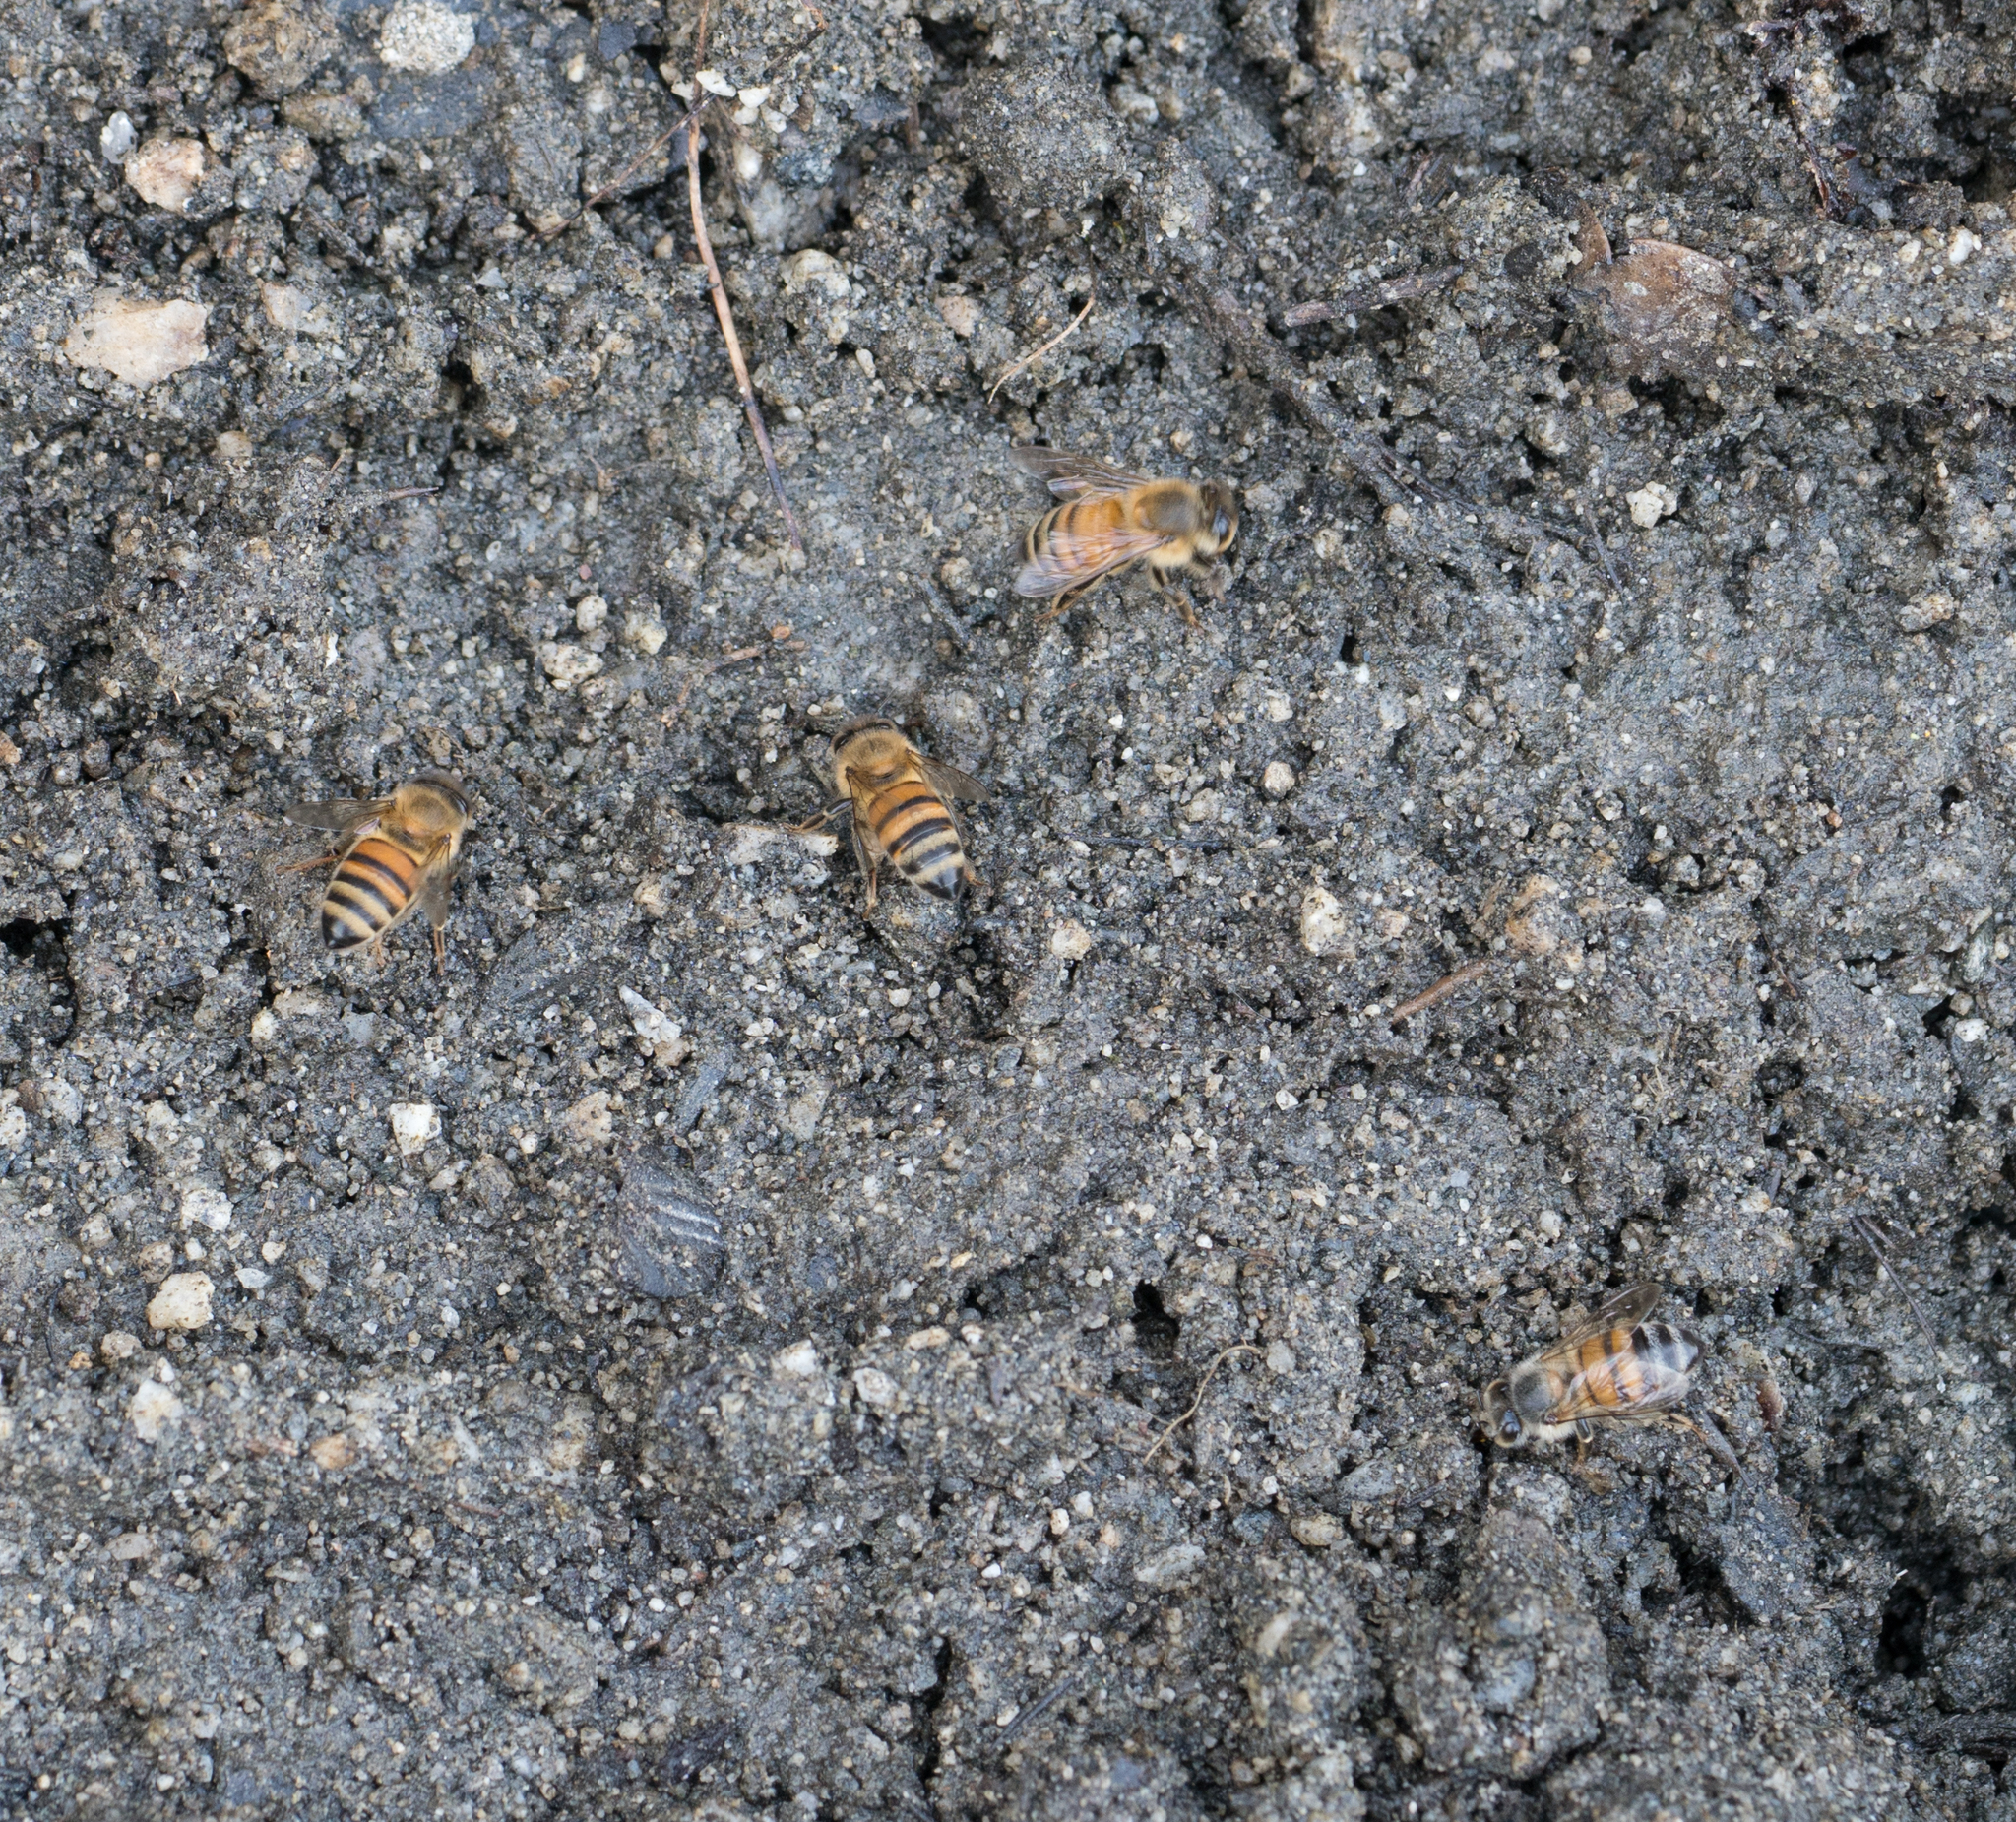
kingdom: Animalia
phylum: Arthropoda
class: Insecta
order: Hymenoptera
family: Apidae
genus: Apis
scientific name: Apis mellifera
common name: Honey bee
